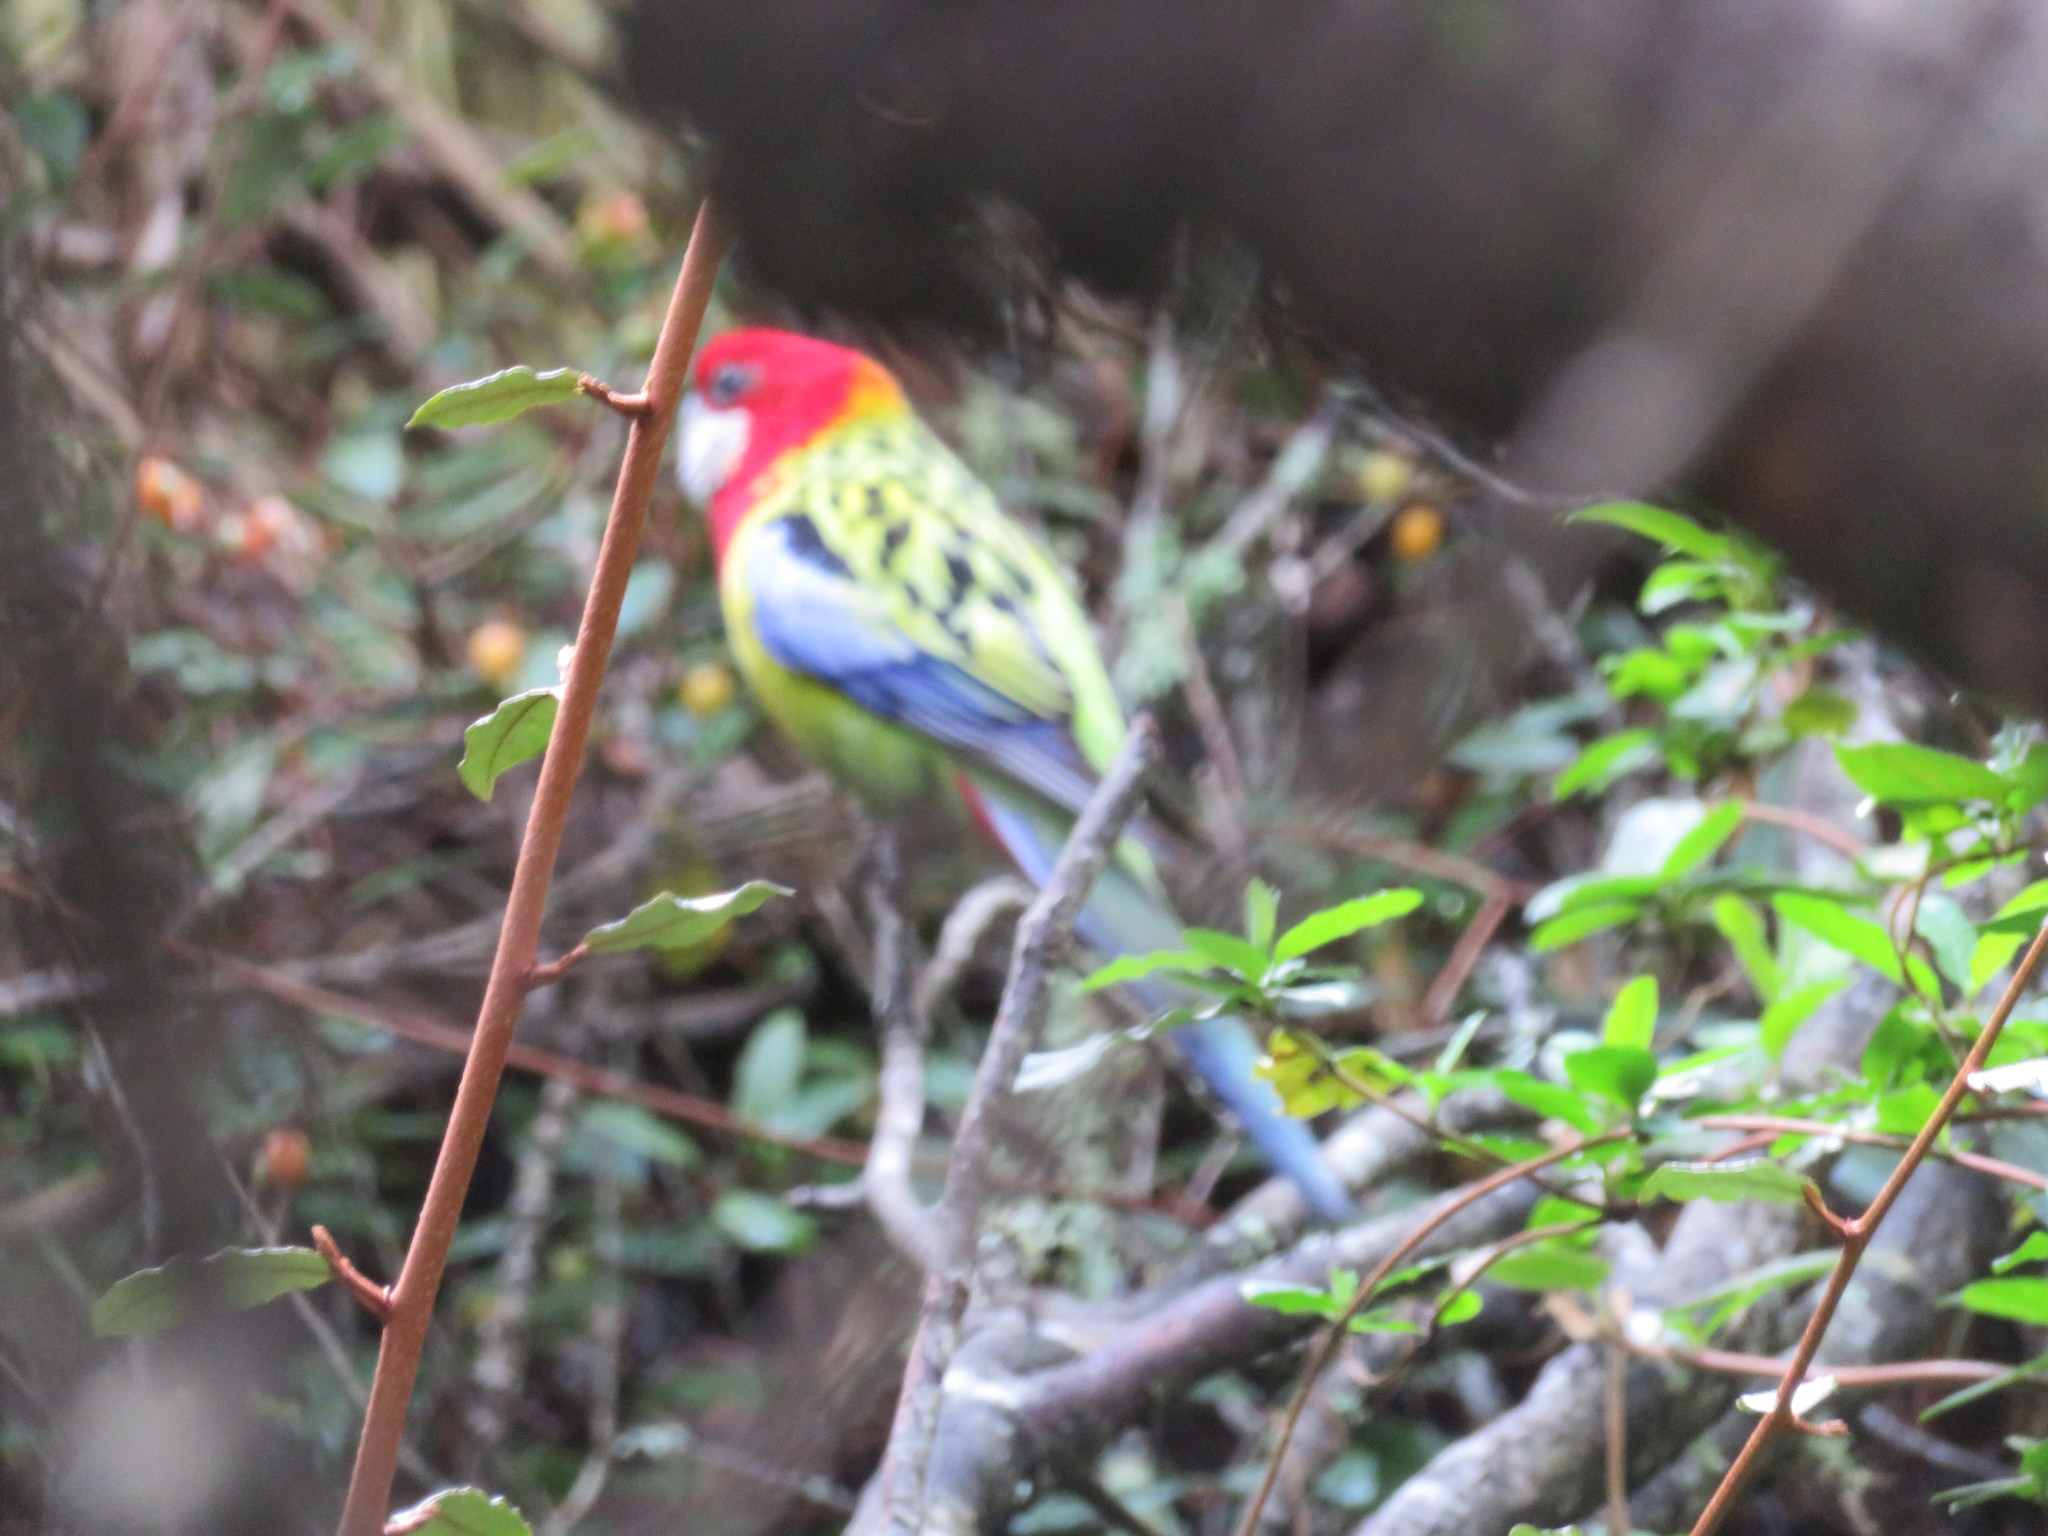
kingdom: Animalia
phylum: Chordata
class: Aves
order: Psittaciformes
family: Psittacidae
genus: Platycercus
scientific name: Platycercus eximius
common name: Eastern rosella
